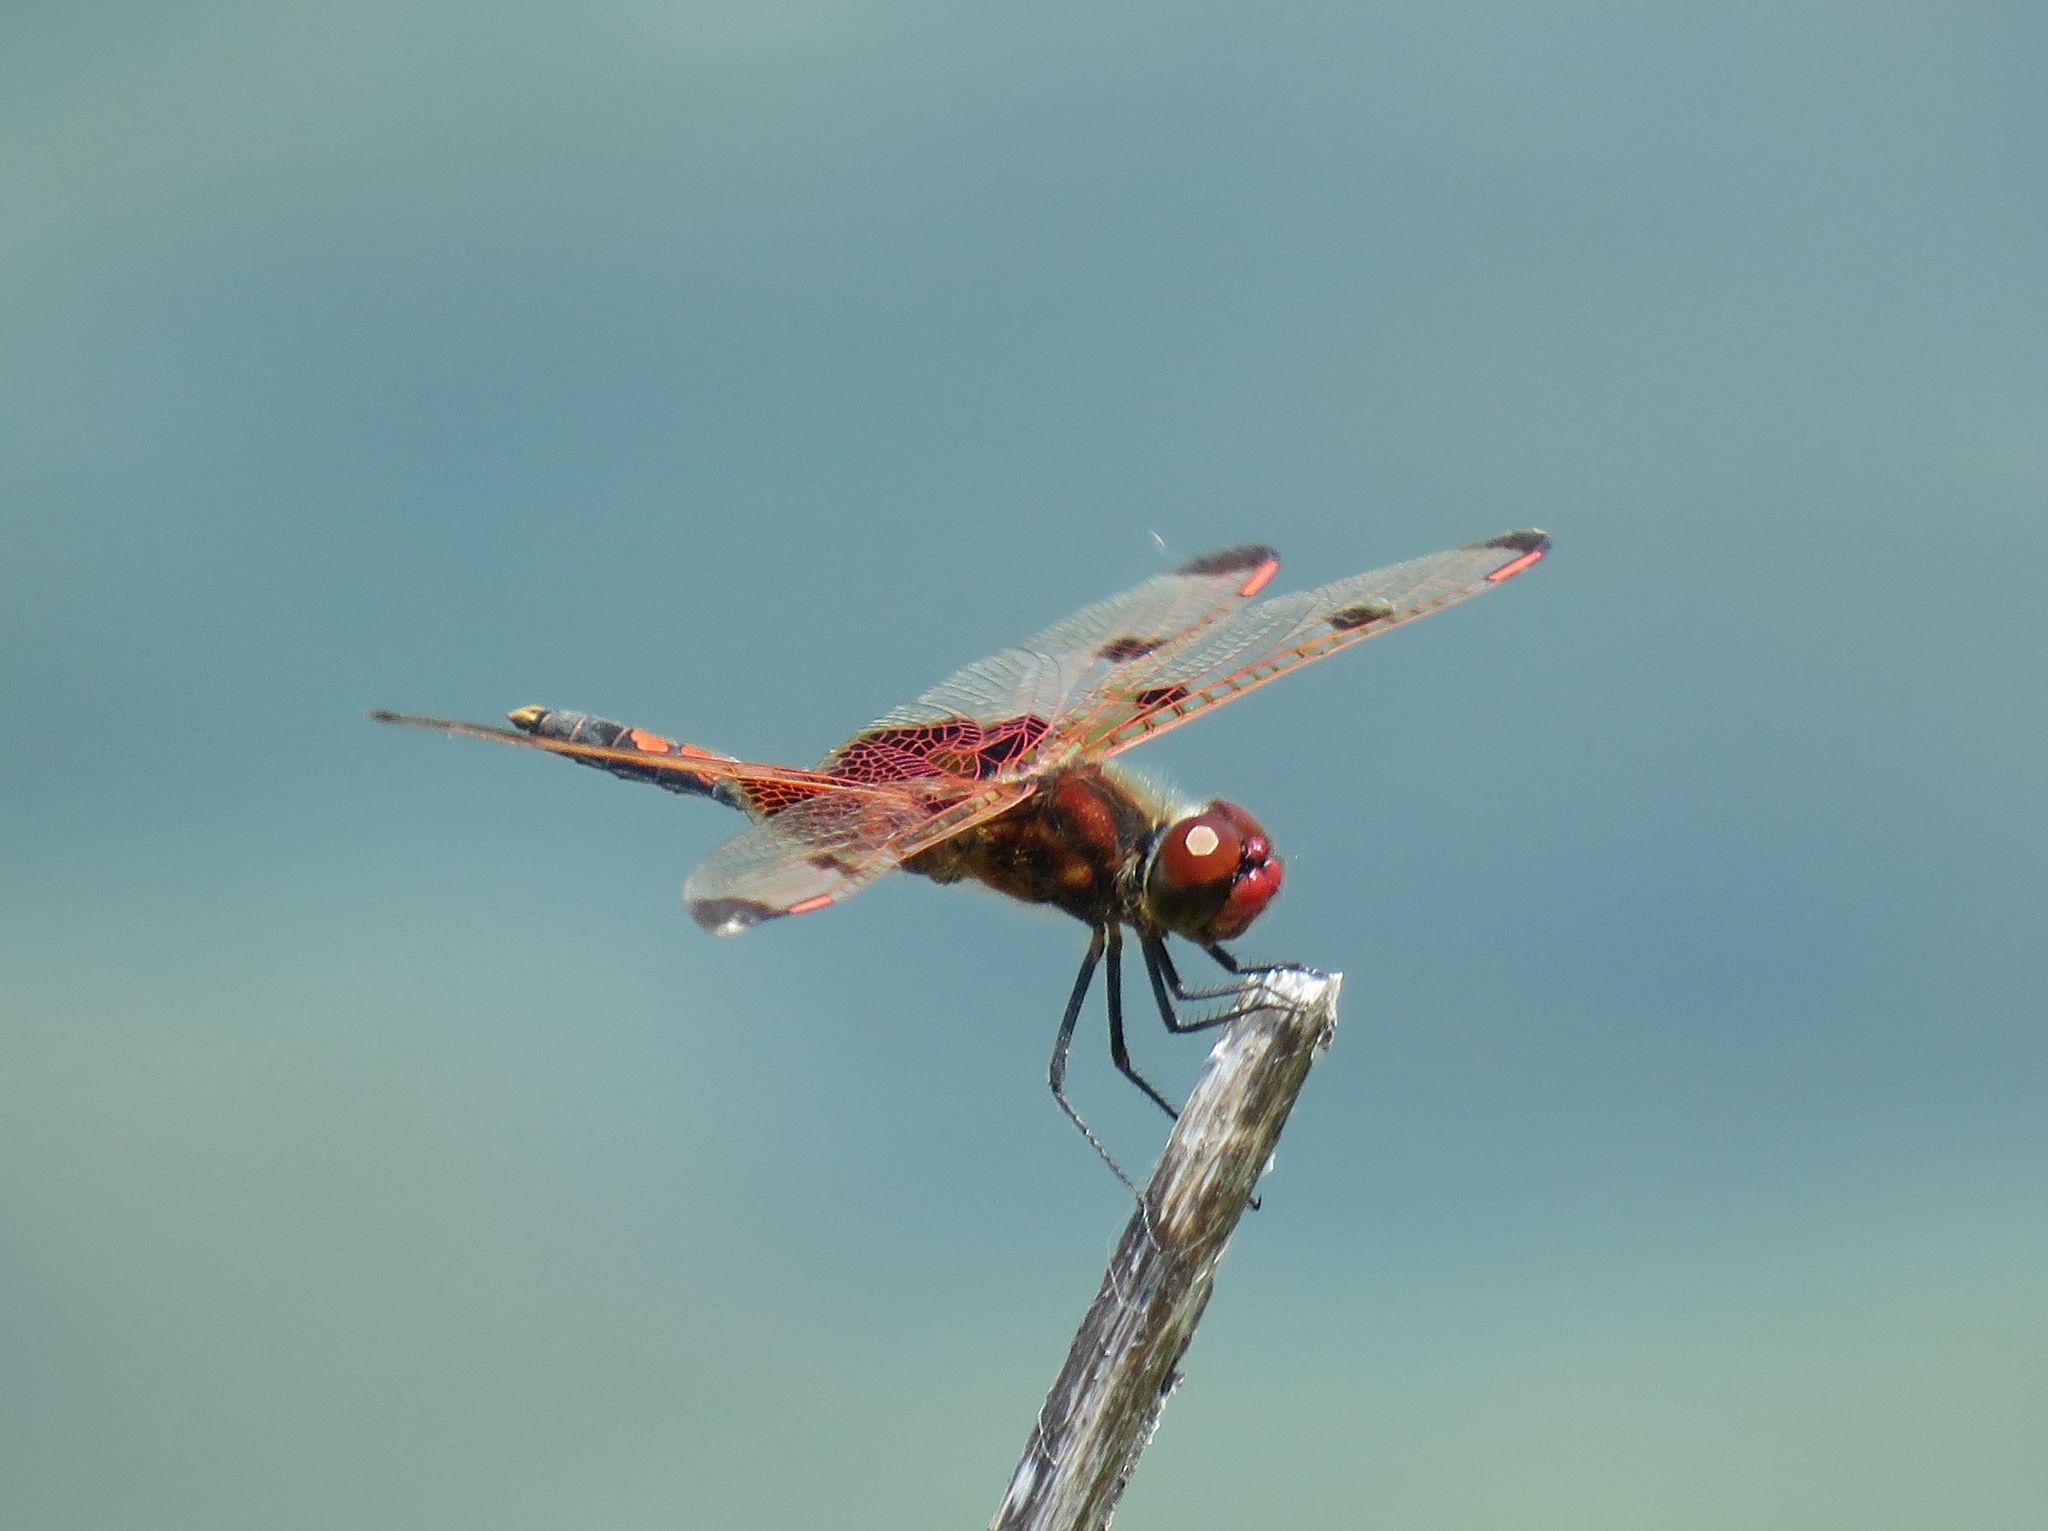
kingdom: Animalia
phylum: Arthropoda
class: Insecta
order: Odonata
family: Libellulidae
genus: Celithemis
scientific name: Celithemis elisa
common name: Calico pennant
